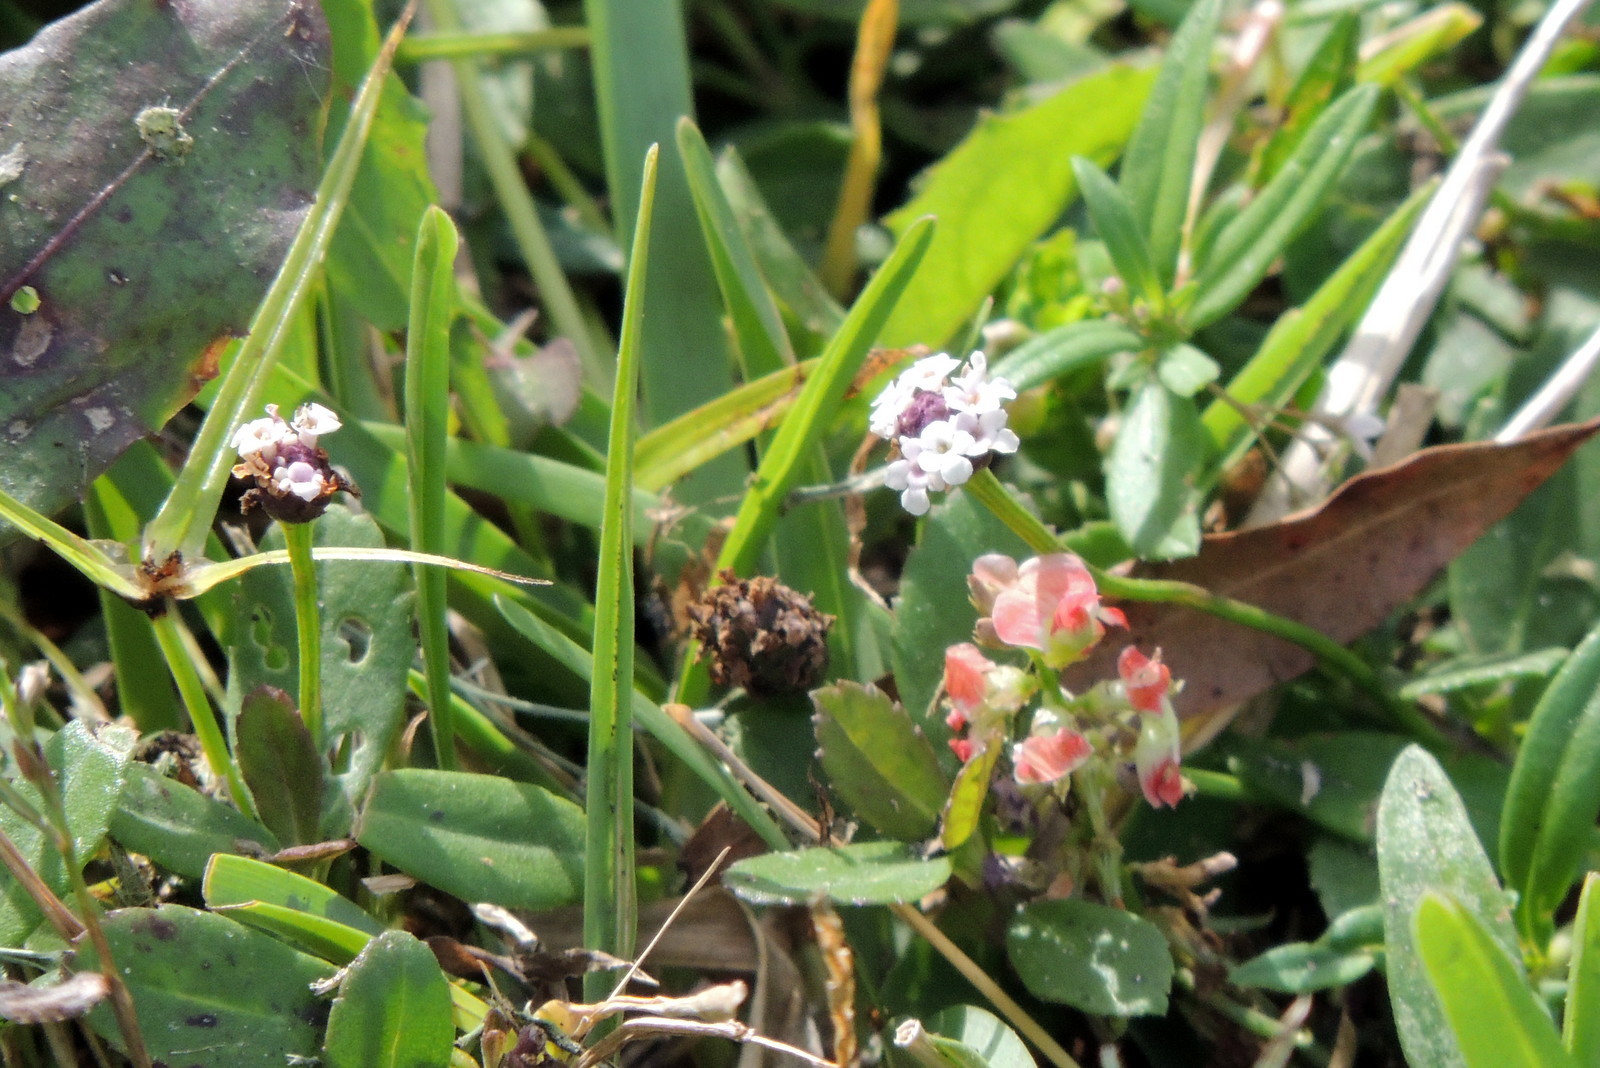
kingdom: Animalia
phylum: Arthropoda
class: Insecta
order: Lepidoptera
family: Nymphalidae
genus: Anartia
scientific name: Anartia jatrophae
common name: White peacock
